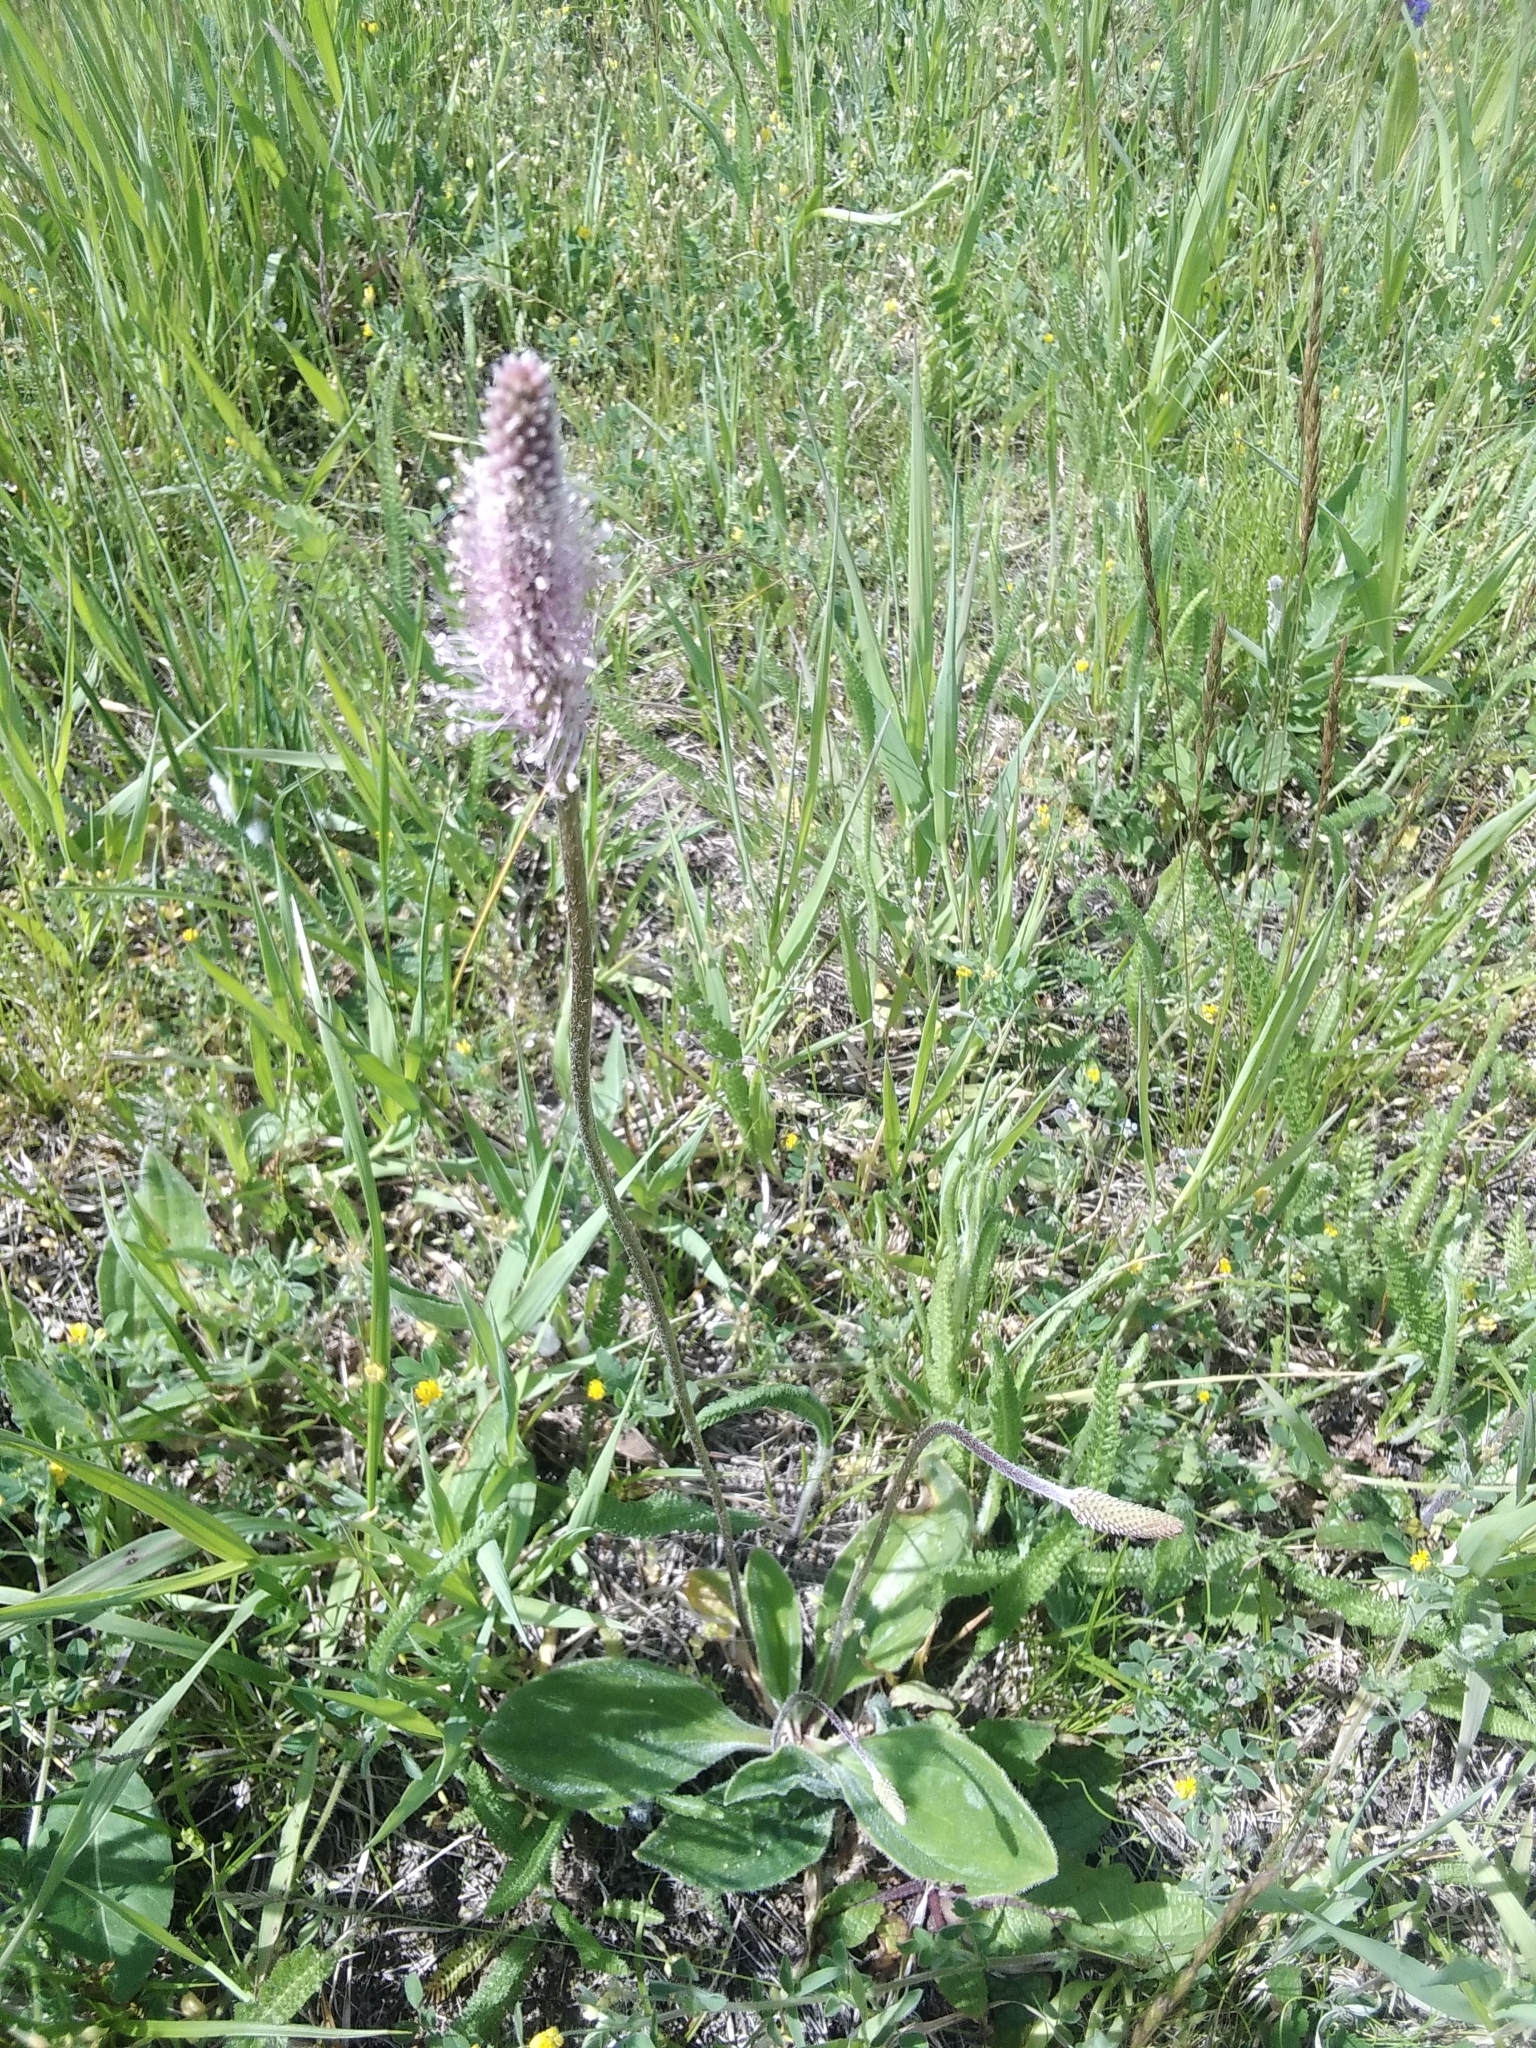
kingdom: Plantae
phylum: Tracheophyta
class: Magnoliopsida
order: Lamiales
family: Plantaginaceae
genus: Plantago
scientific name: Plantago media
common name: Hoary plantain
